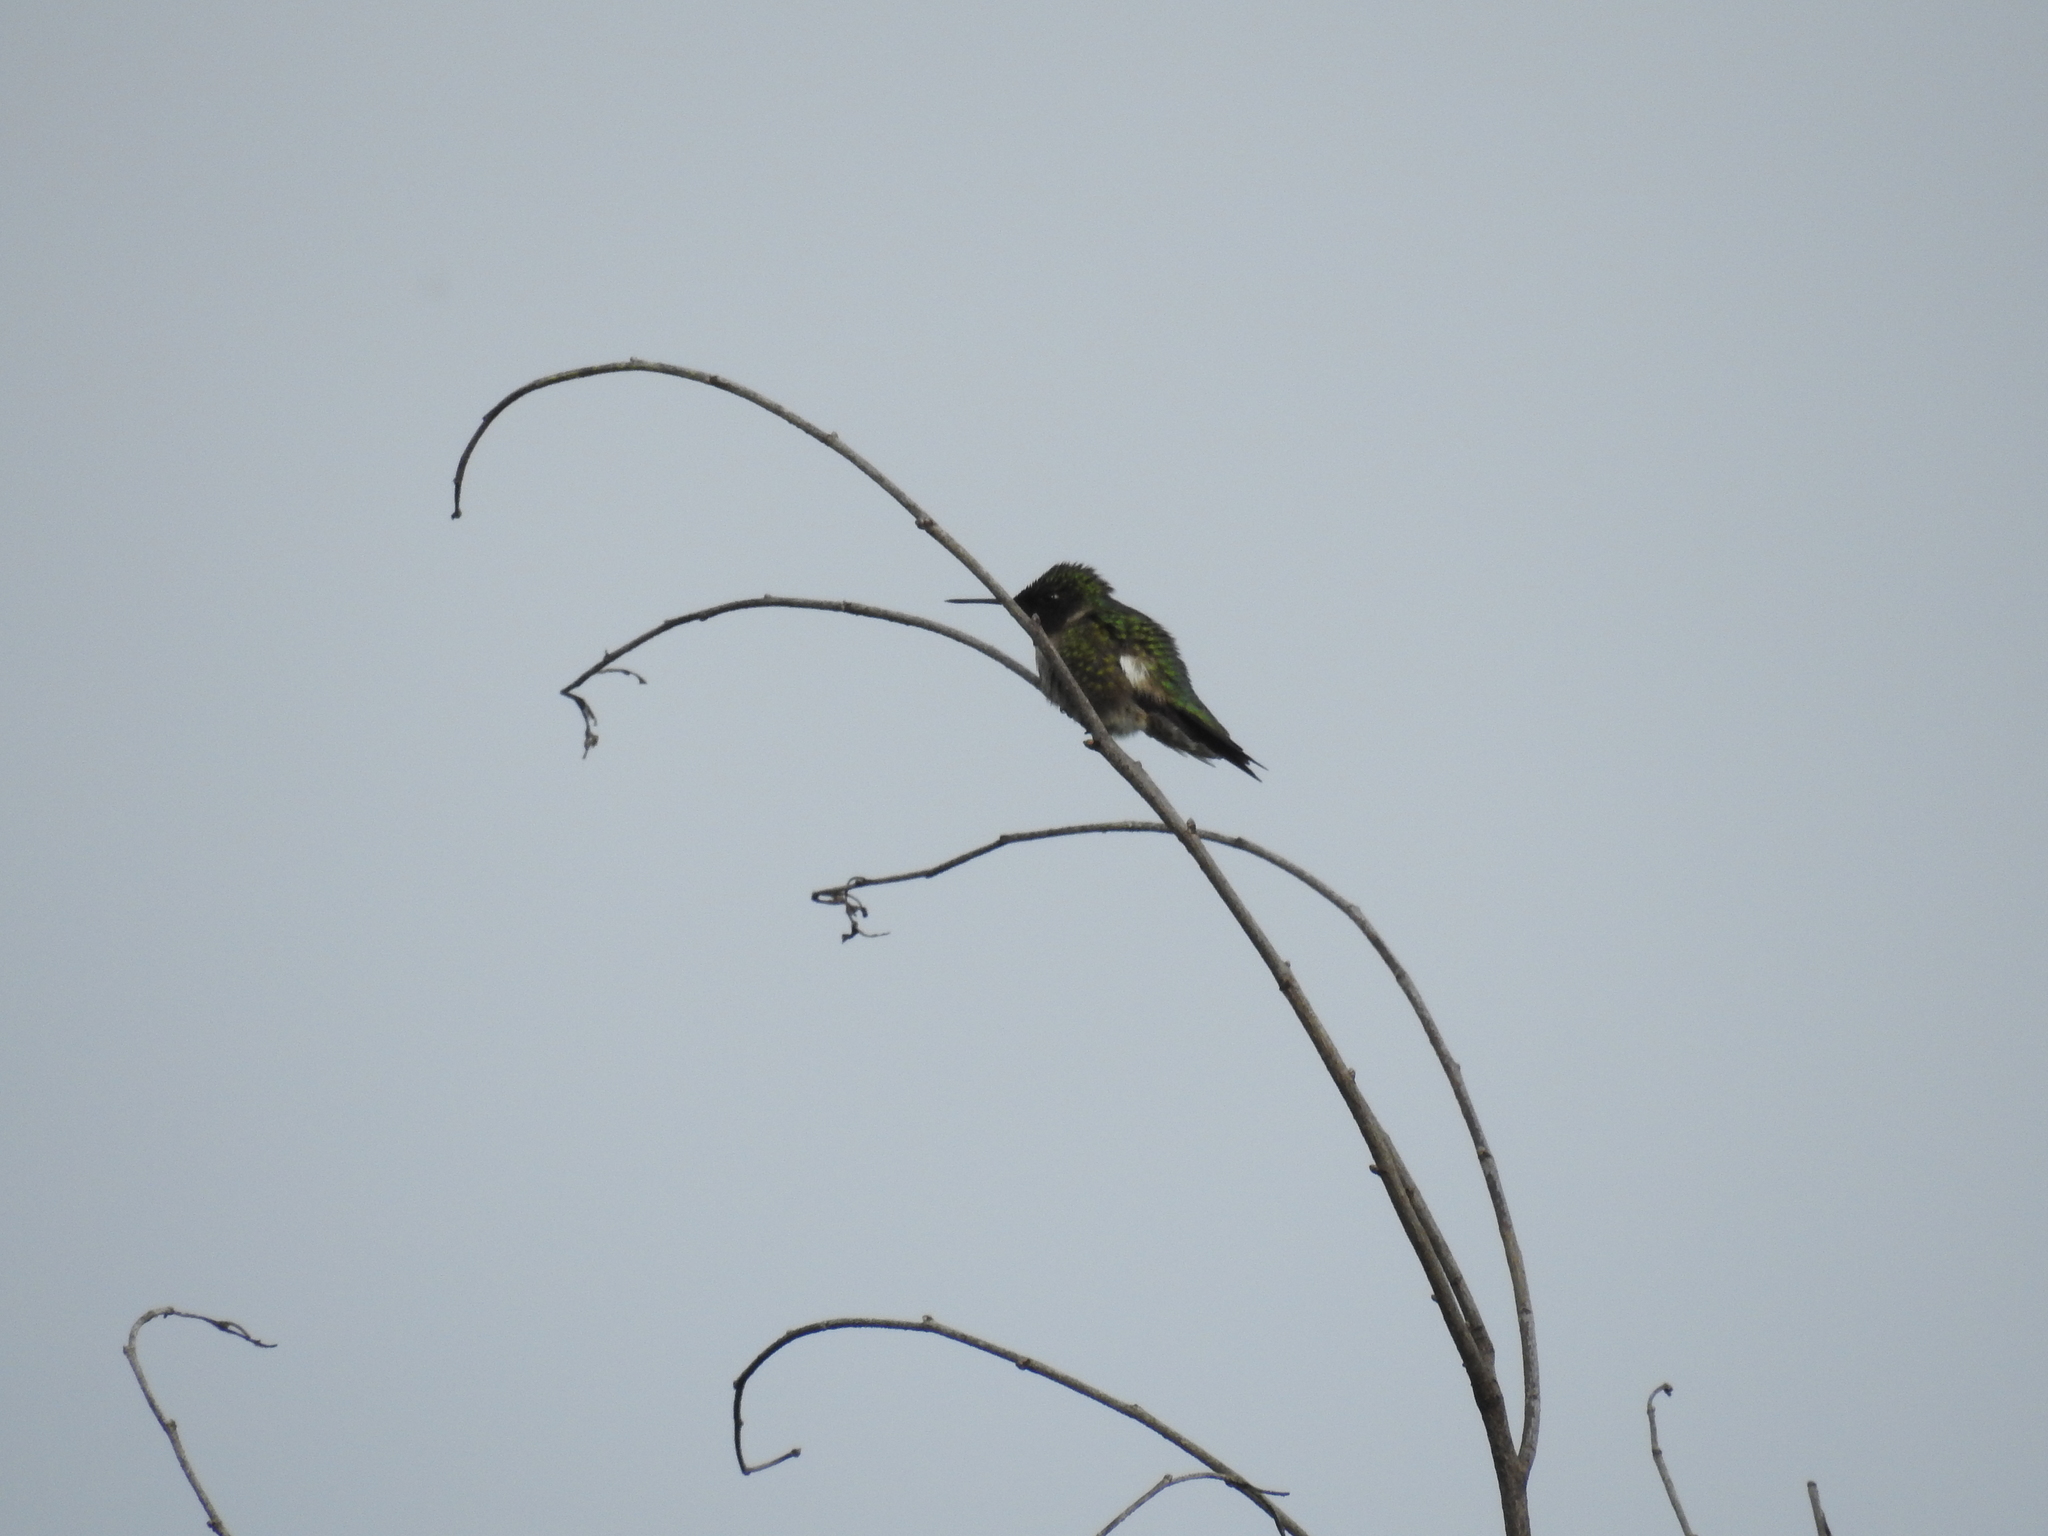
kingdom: Animalia
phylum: Chordata
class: Aves
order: Apodiformes
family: Trochilidae
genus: Archilochus
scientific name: Archilochus colubris
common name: Ruby-throated hummingbird
